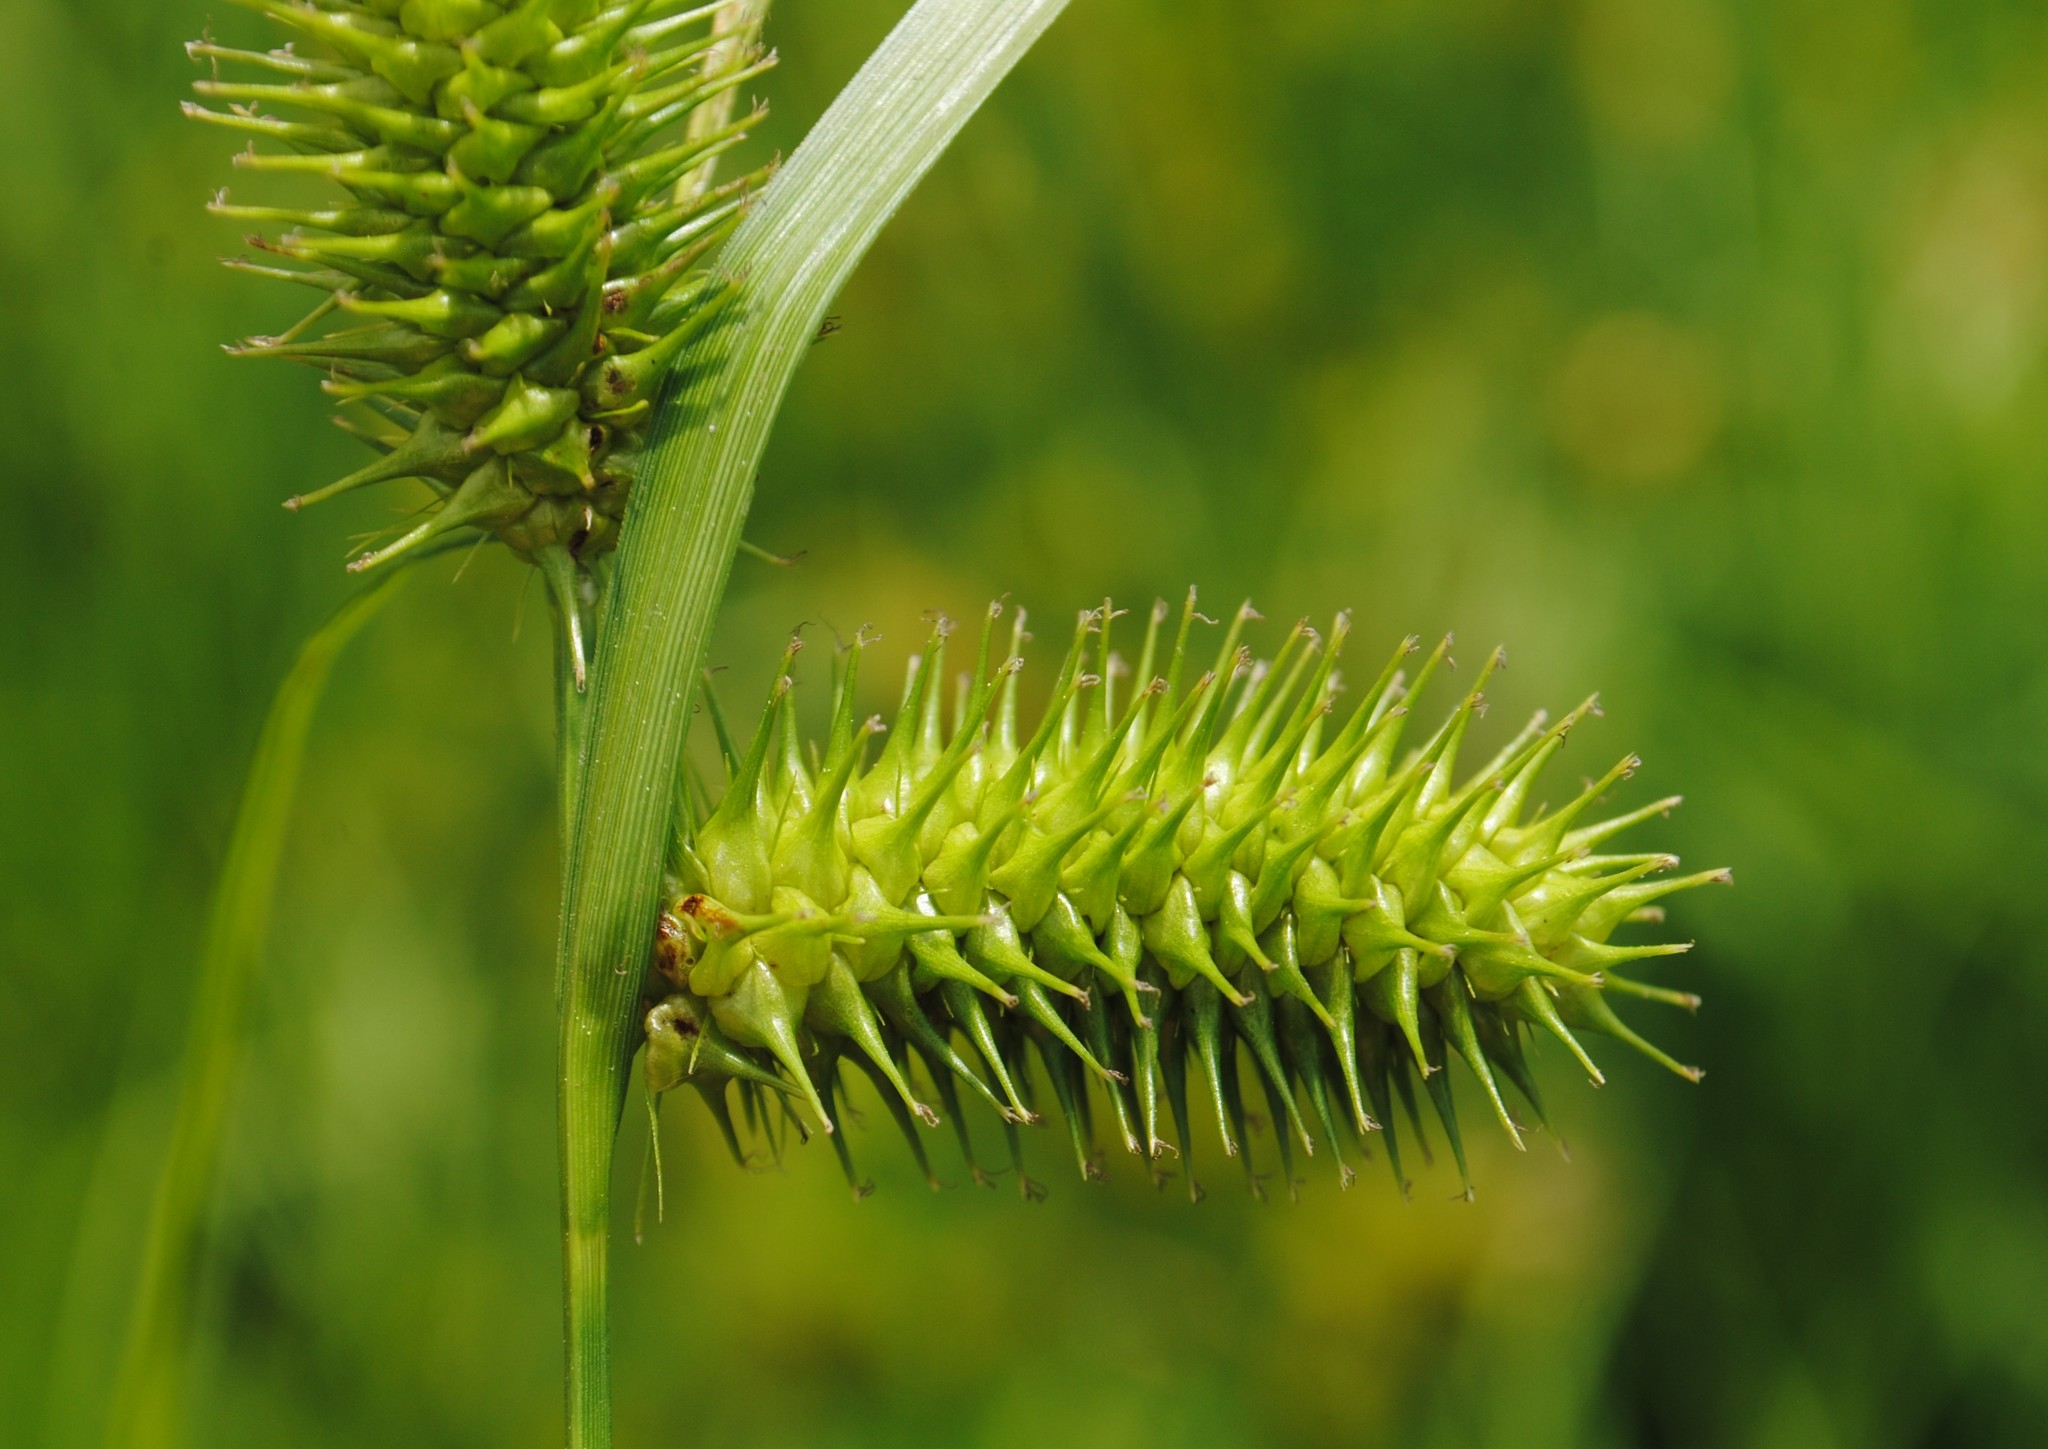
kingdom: Plantae
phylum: Tracheophyta
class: Liliopsida
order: Poales
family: Cyperaceae
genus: Carex
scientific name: Carex lurida
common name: Sallow sedge
